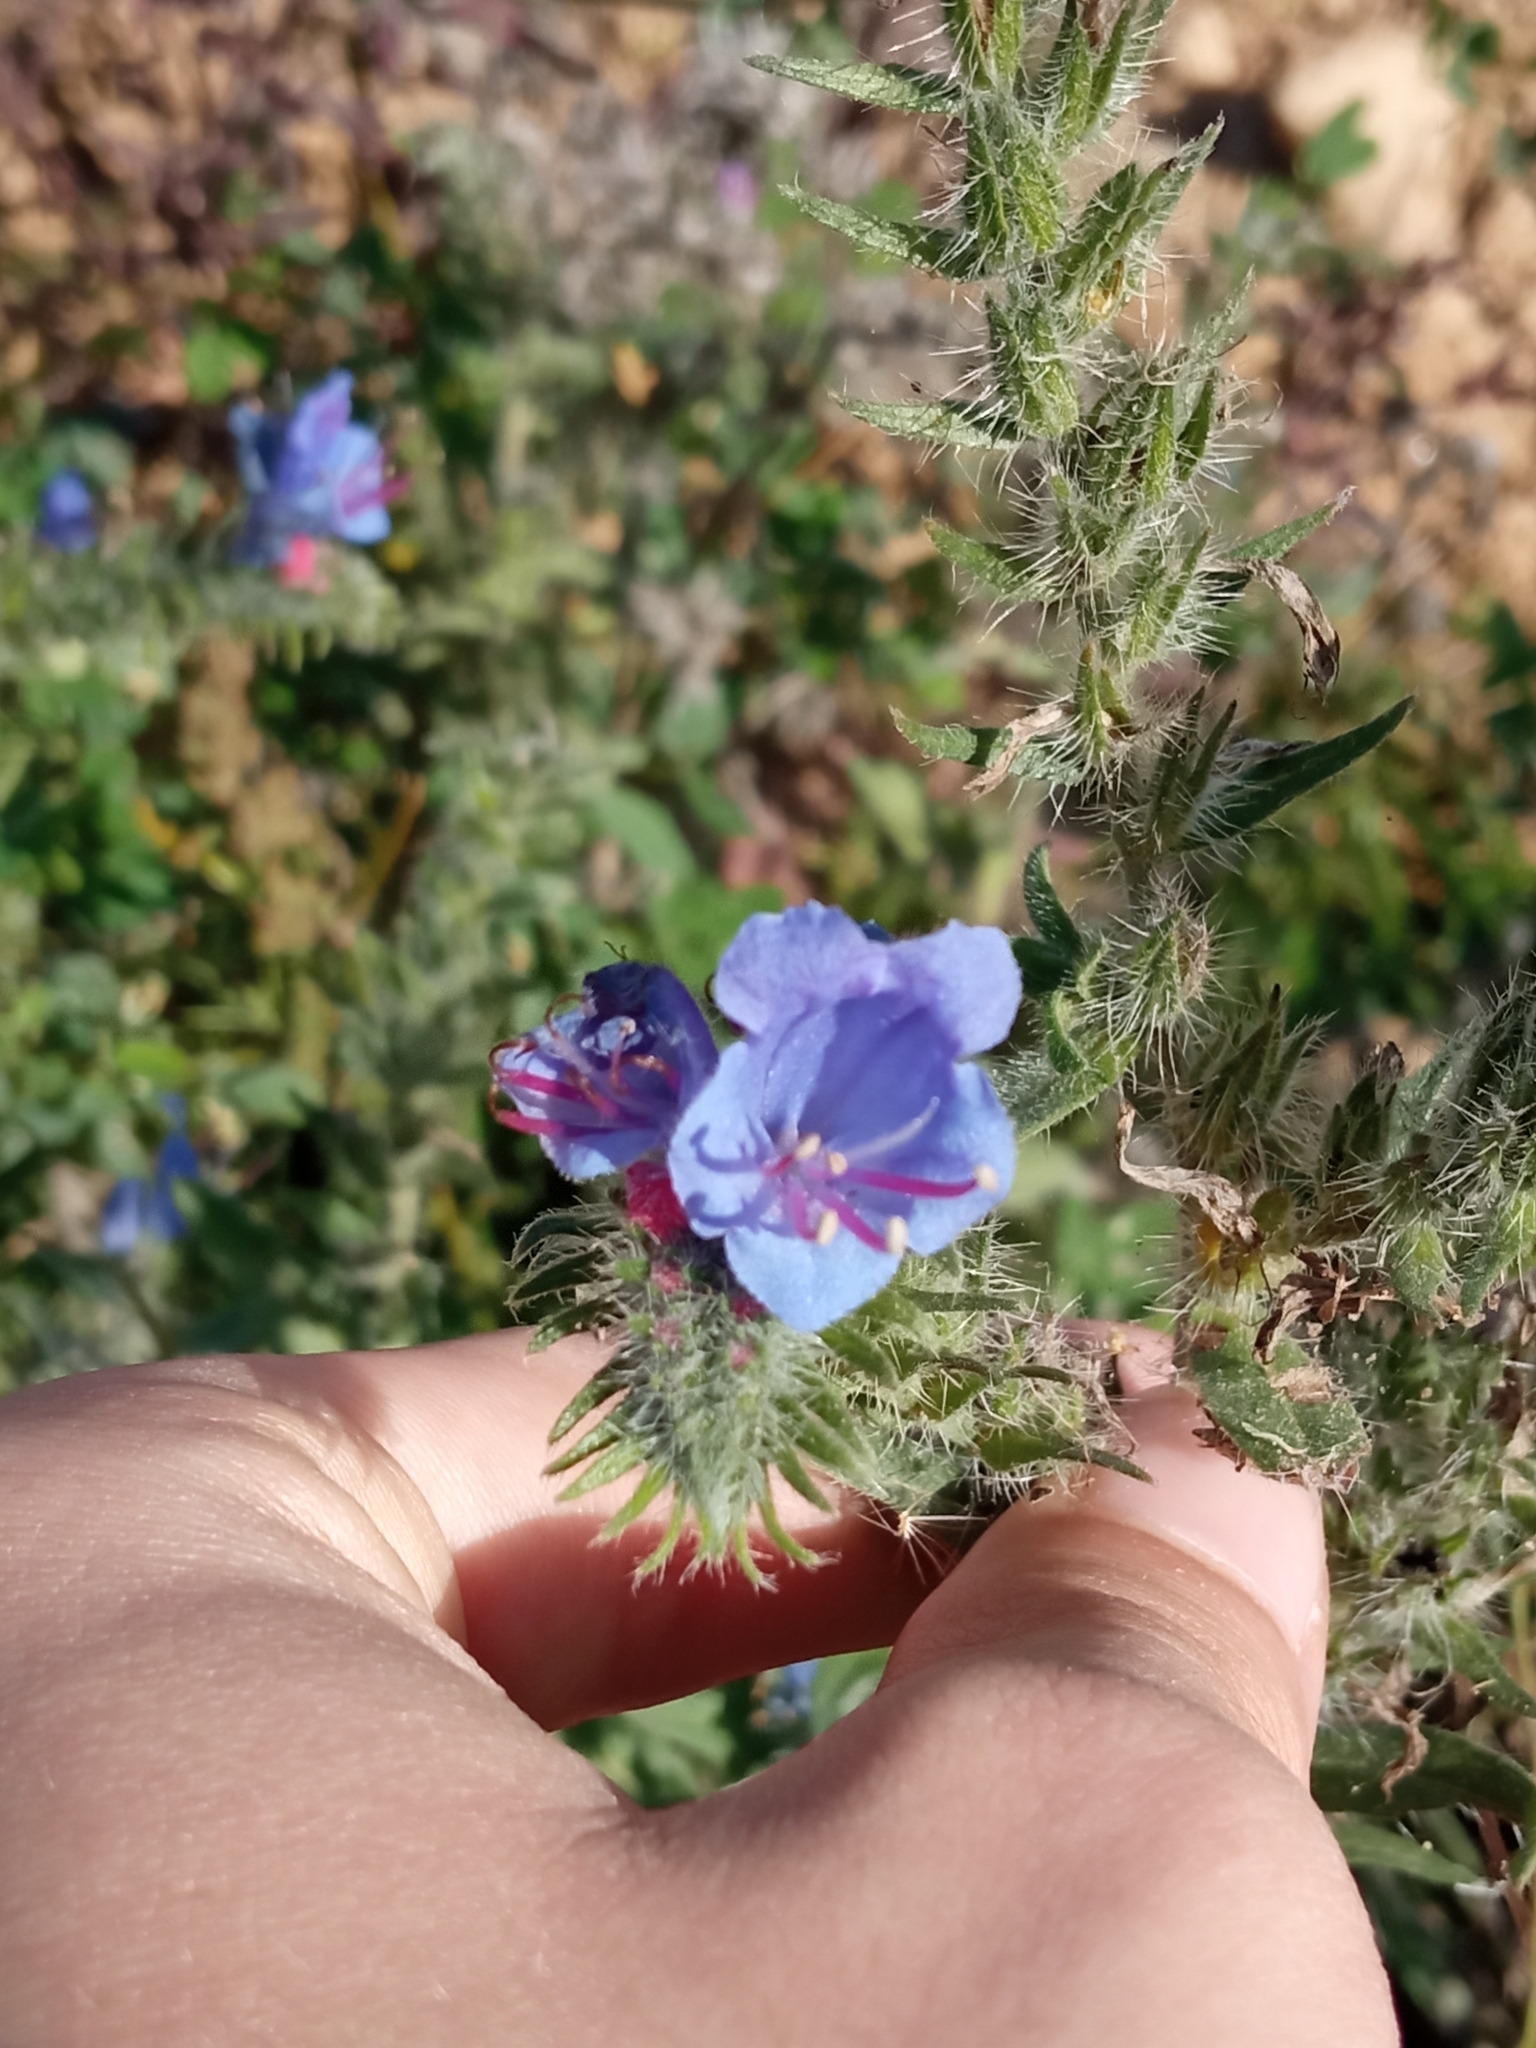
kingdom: Plantae
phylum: Tracheophyta
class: Magnoliopsida
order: Boraginales
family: Boraginaceae
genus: Echium
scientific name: Echium vulgare
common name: Common viper's bugloss
